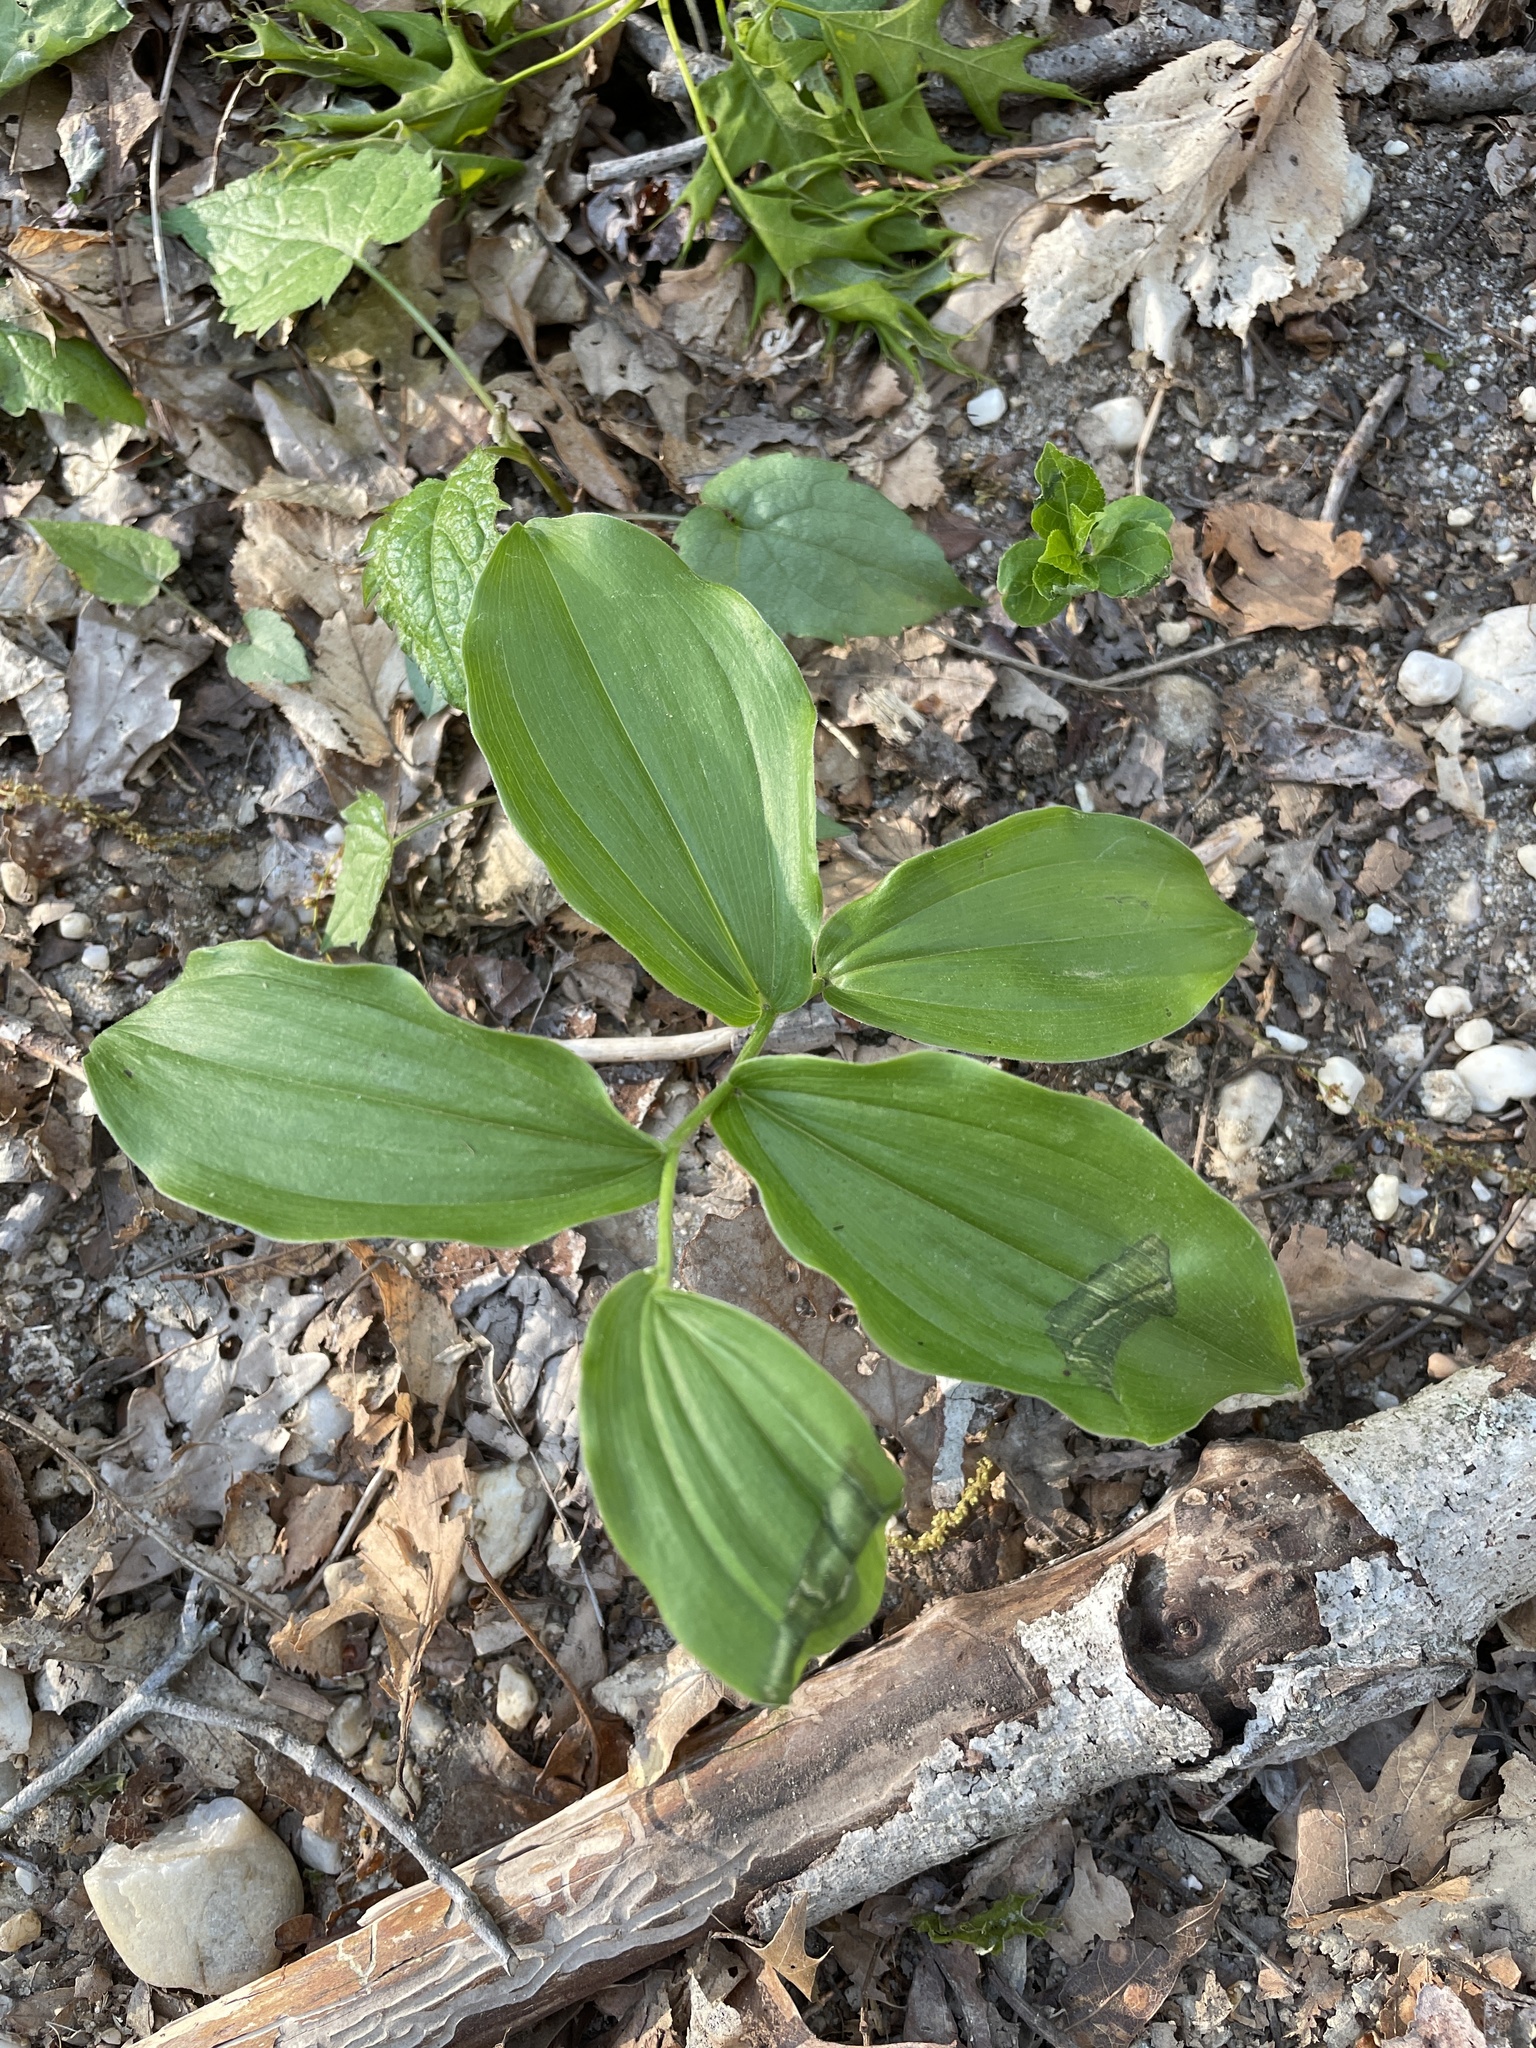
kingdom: Plantae
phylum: Tracheophyta
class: Liliopsida
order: Asparagales
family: Asparagaceae
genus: Maianthemum
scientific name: Maianthemum racemosum
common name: False spikenard
